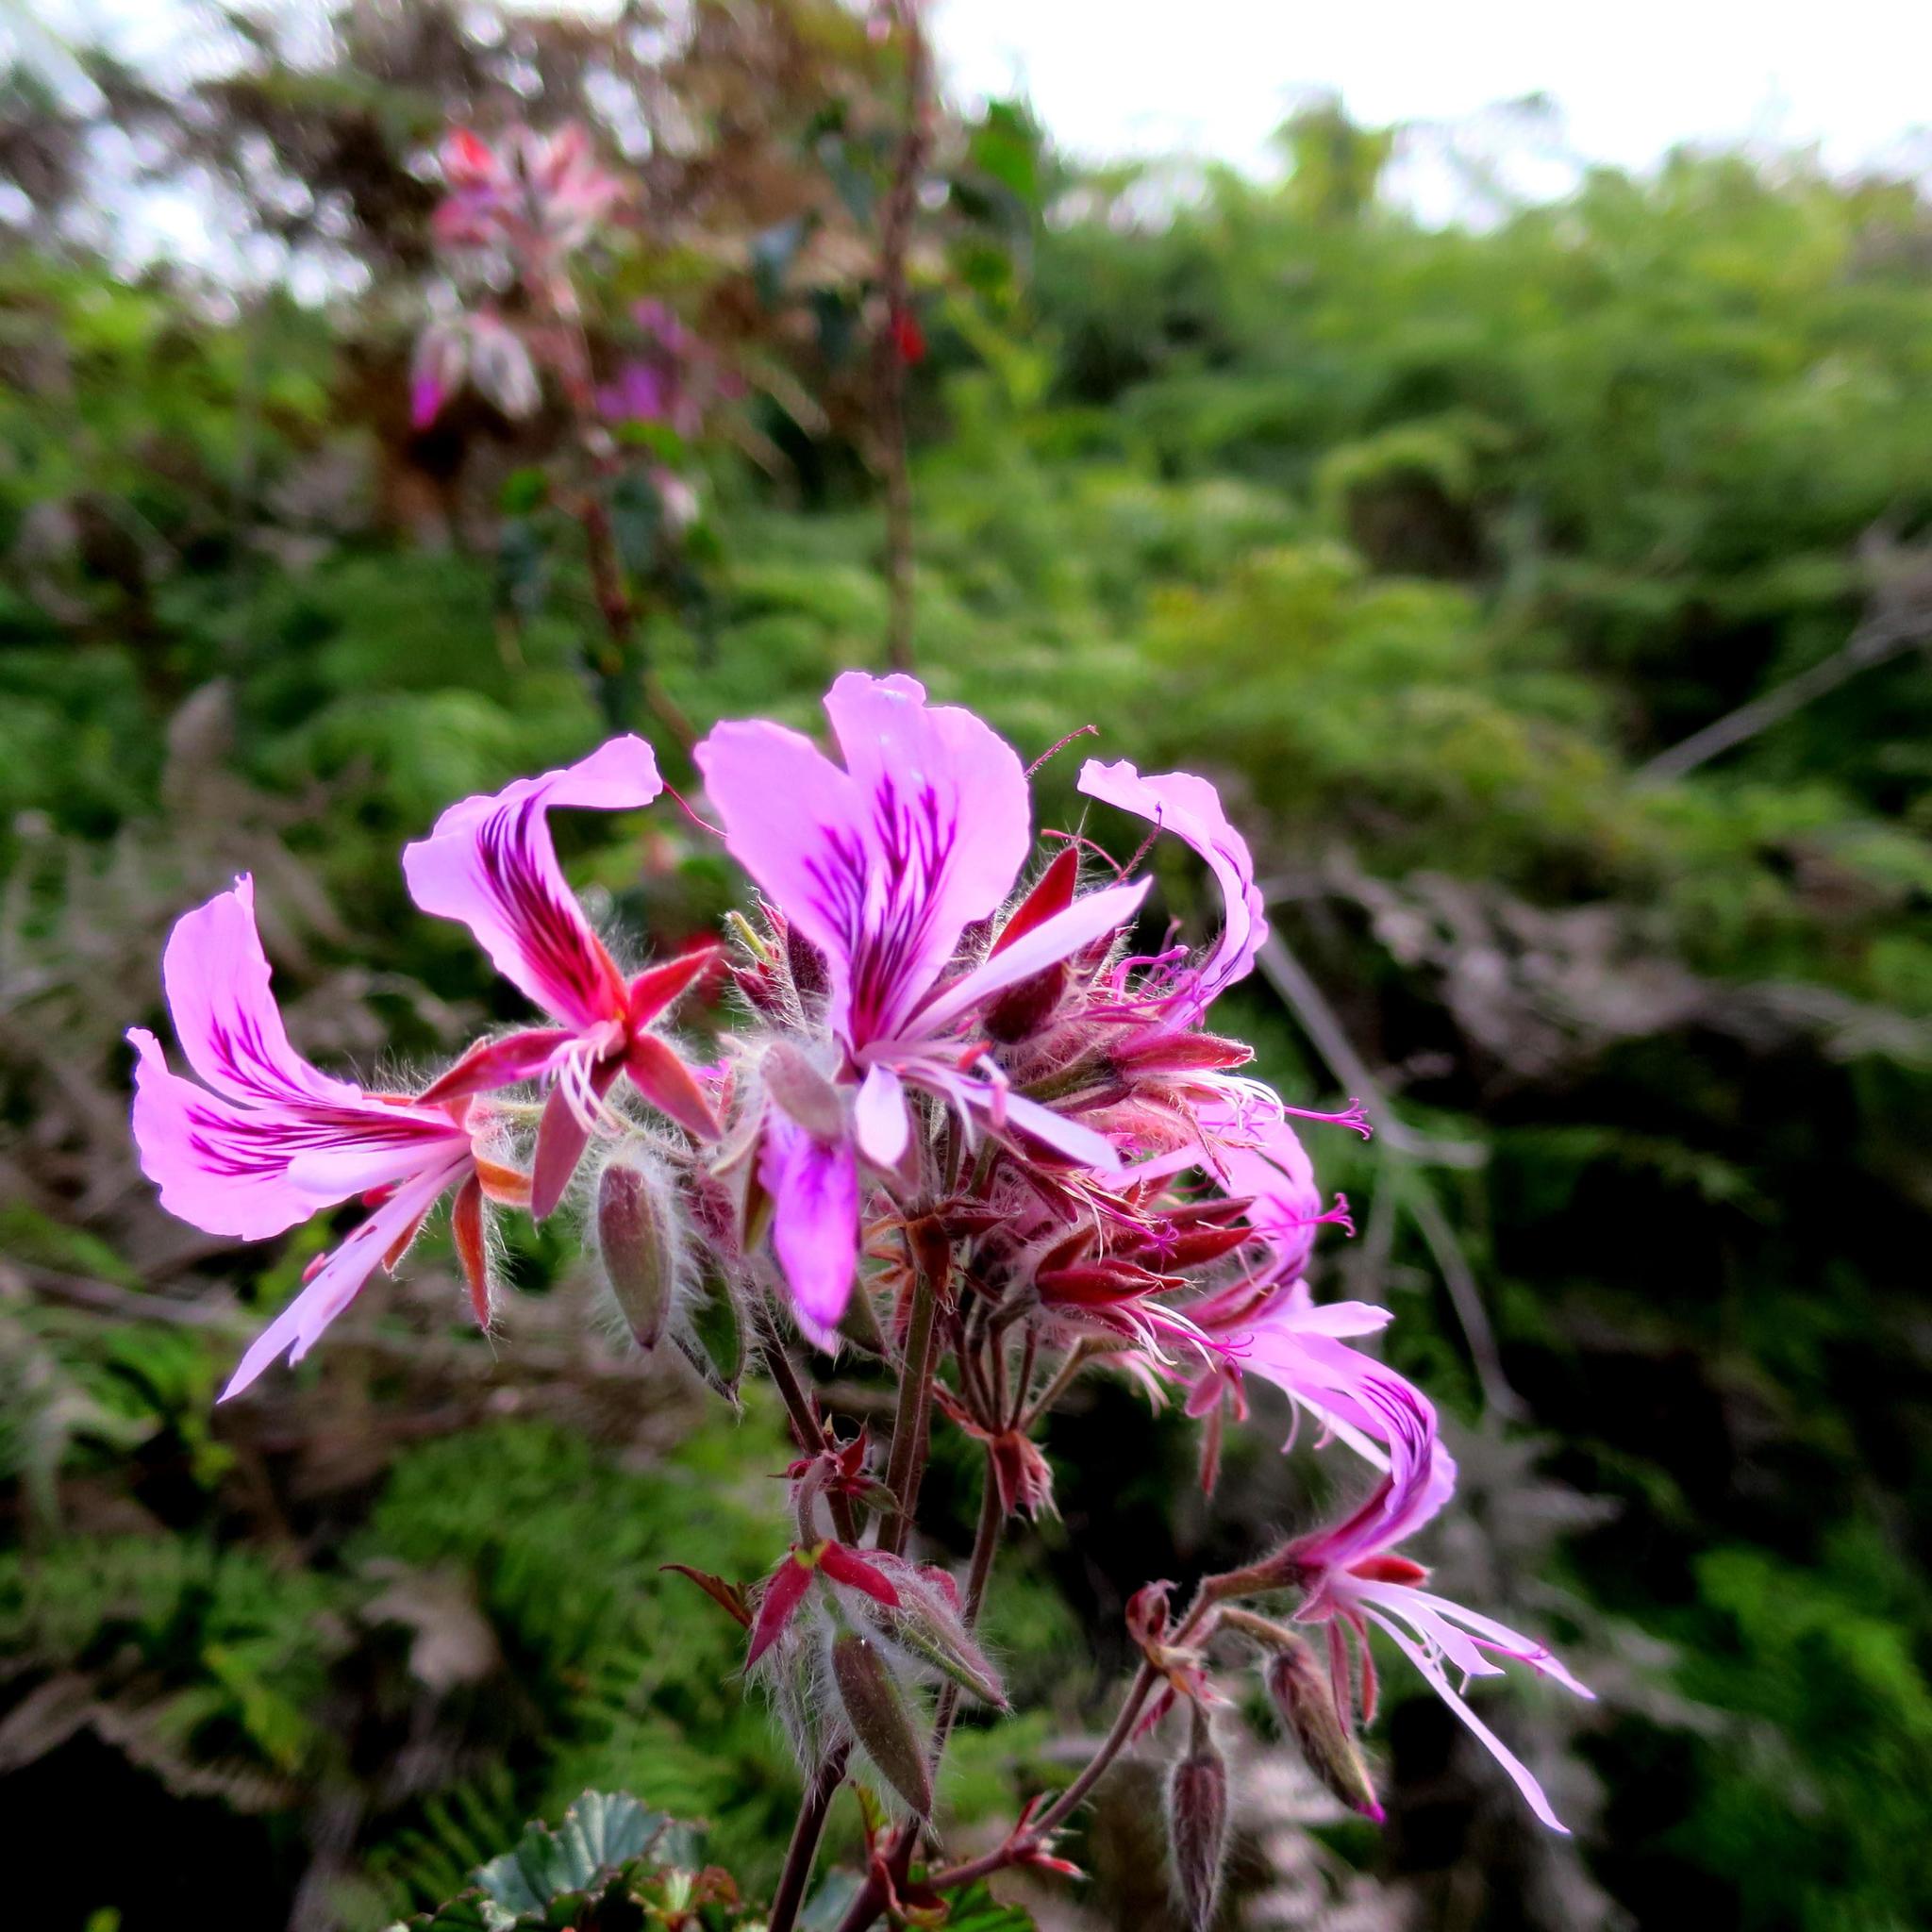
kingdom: Plantae
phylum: Tracheophyta
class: Magnoliopsida
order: Geraniales
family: Geraniaceae
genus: Pelargonium
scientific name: Pelargonium cordifolium
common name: Heart-leaf pelargonium
